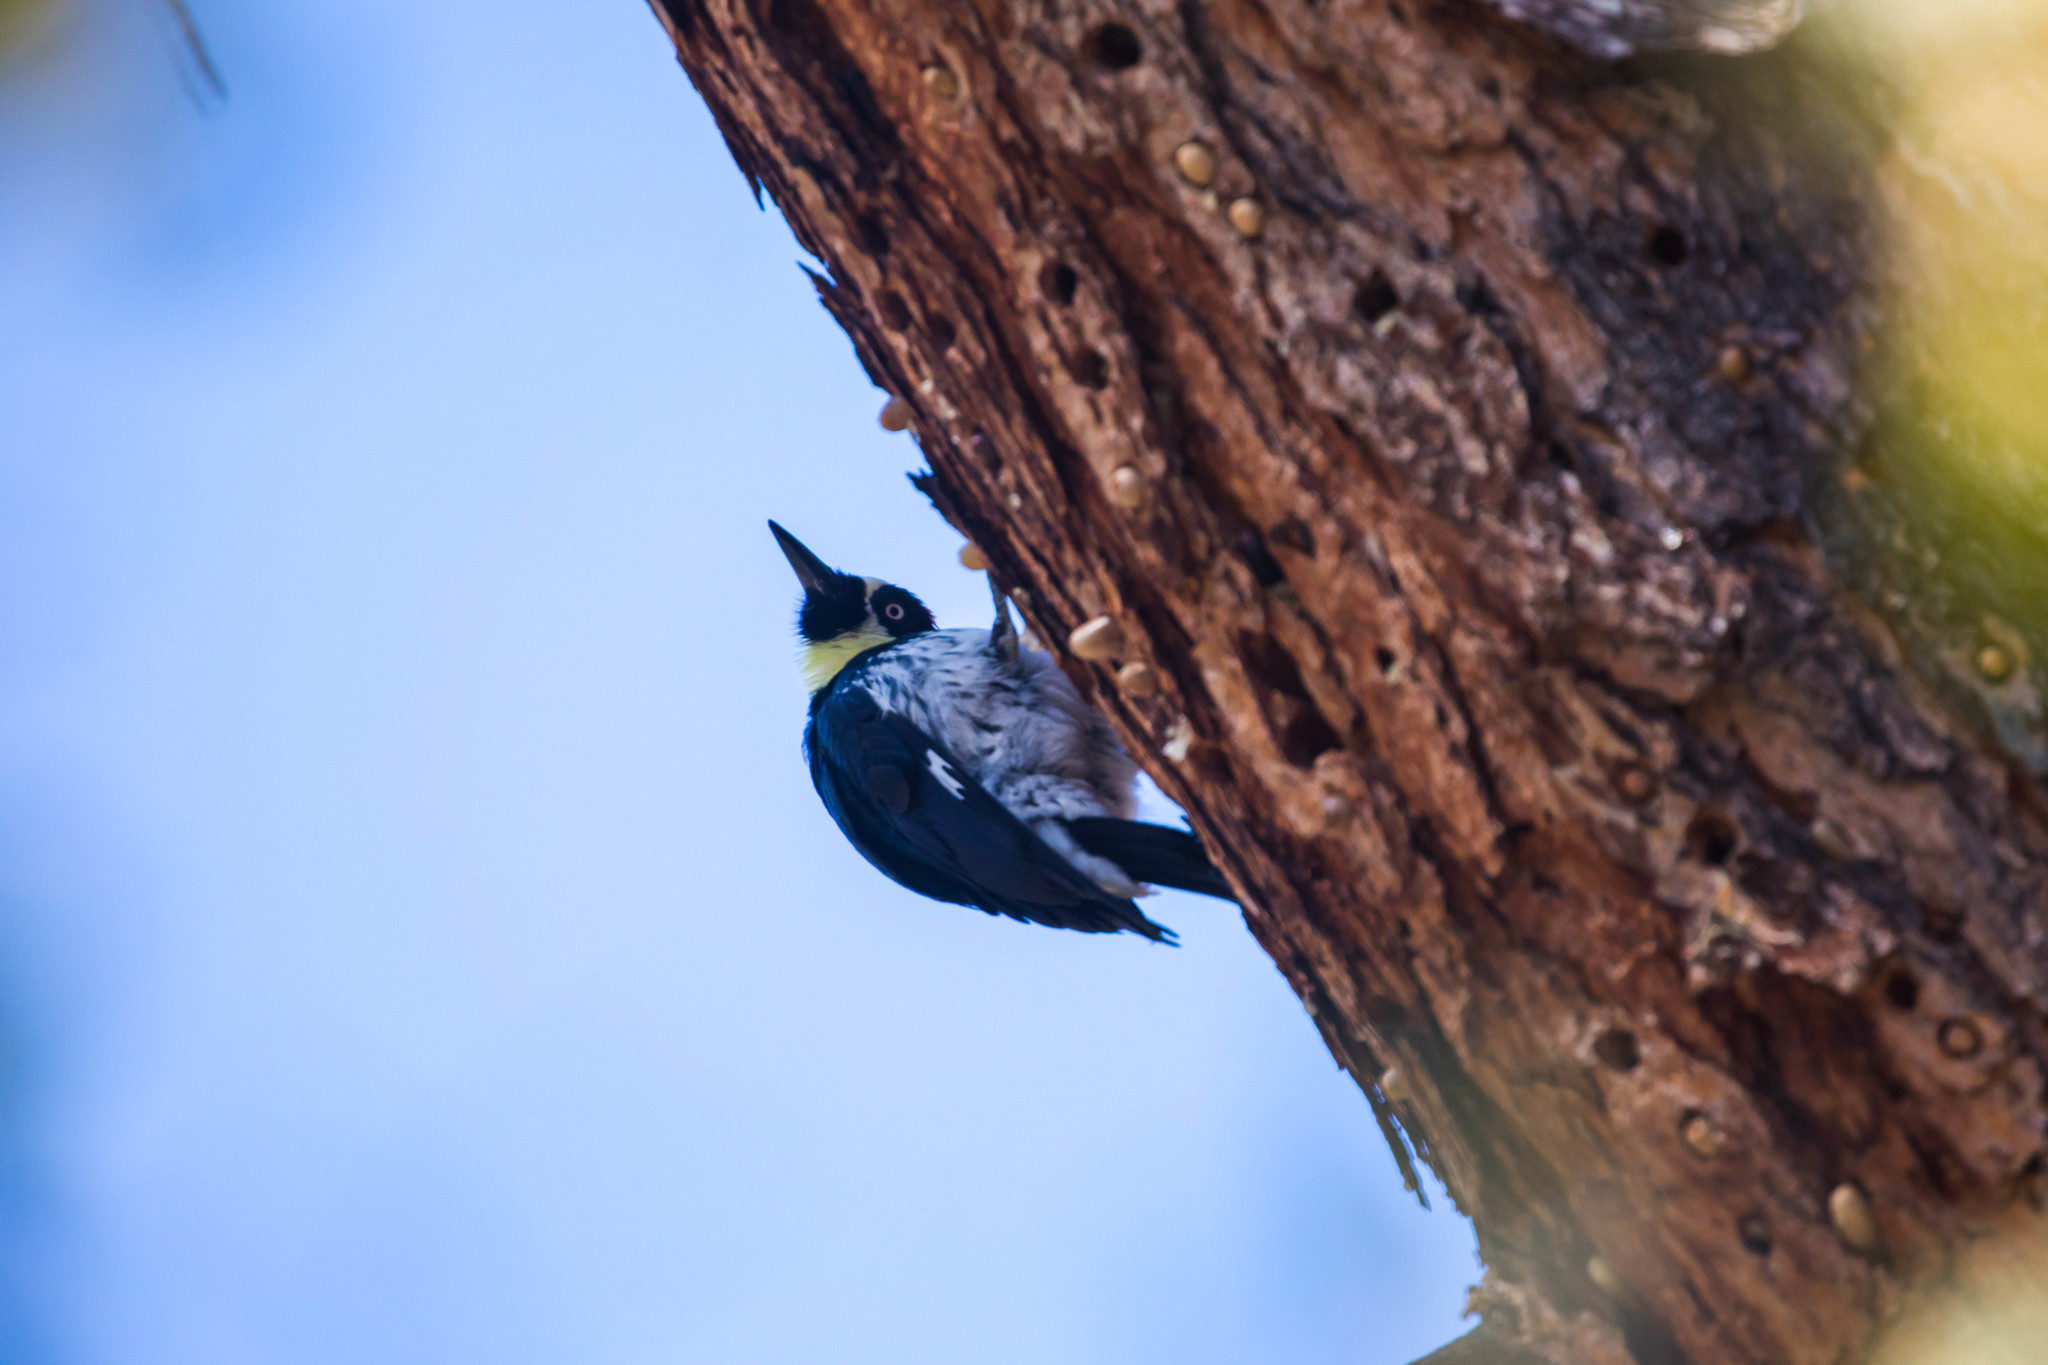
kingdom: Animalia
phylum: Chordata
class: Aves
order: Piciformes
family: Picidae
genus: Melanerpes
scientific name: Melanerpes formicivorus
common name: Acorn woodpecker
